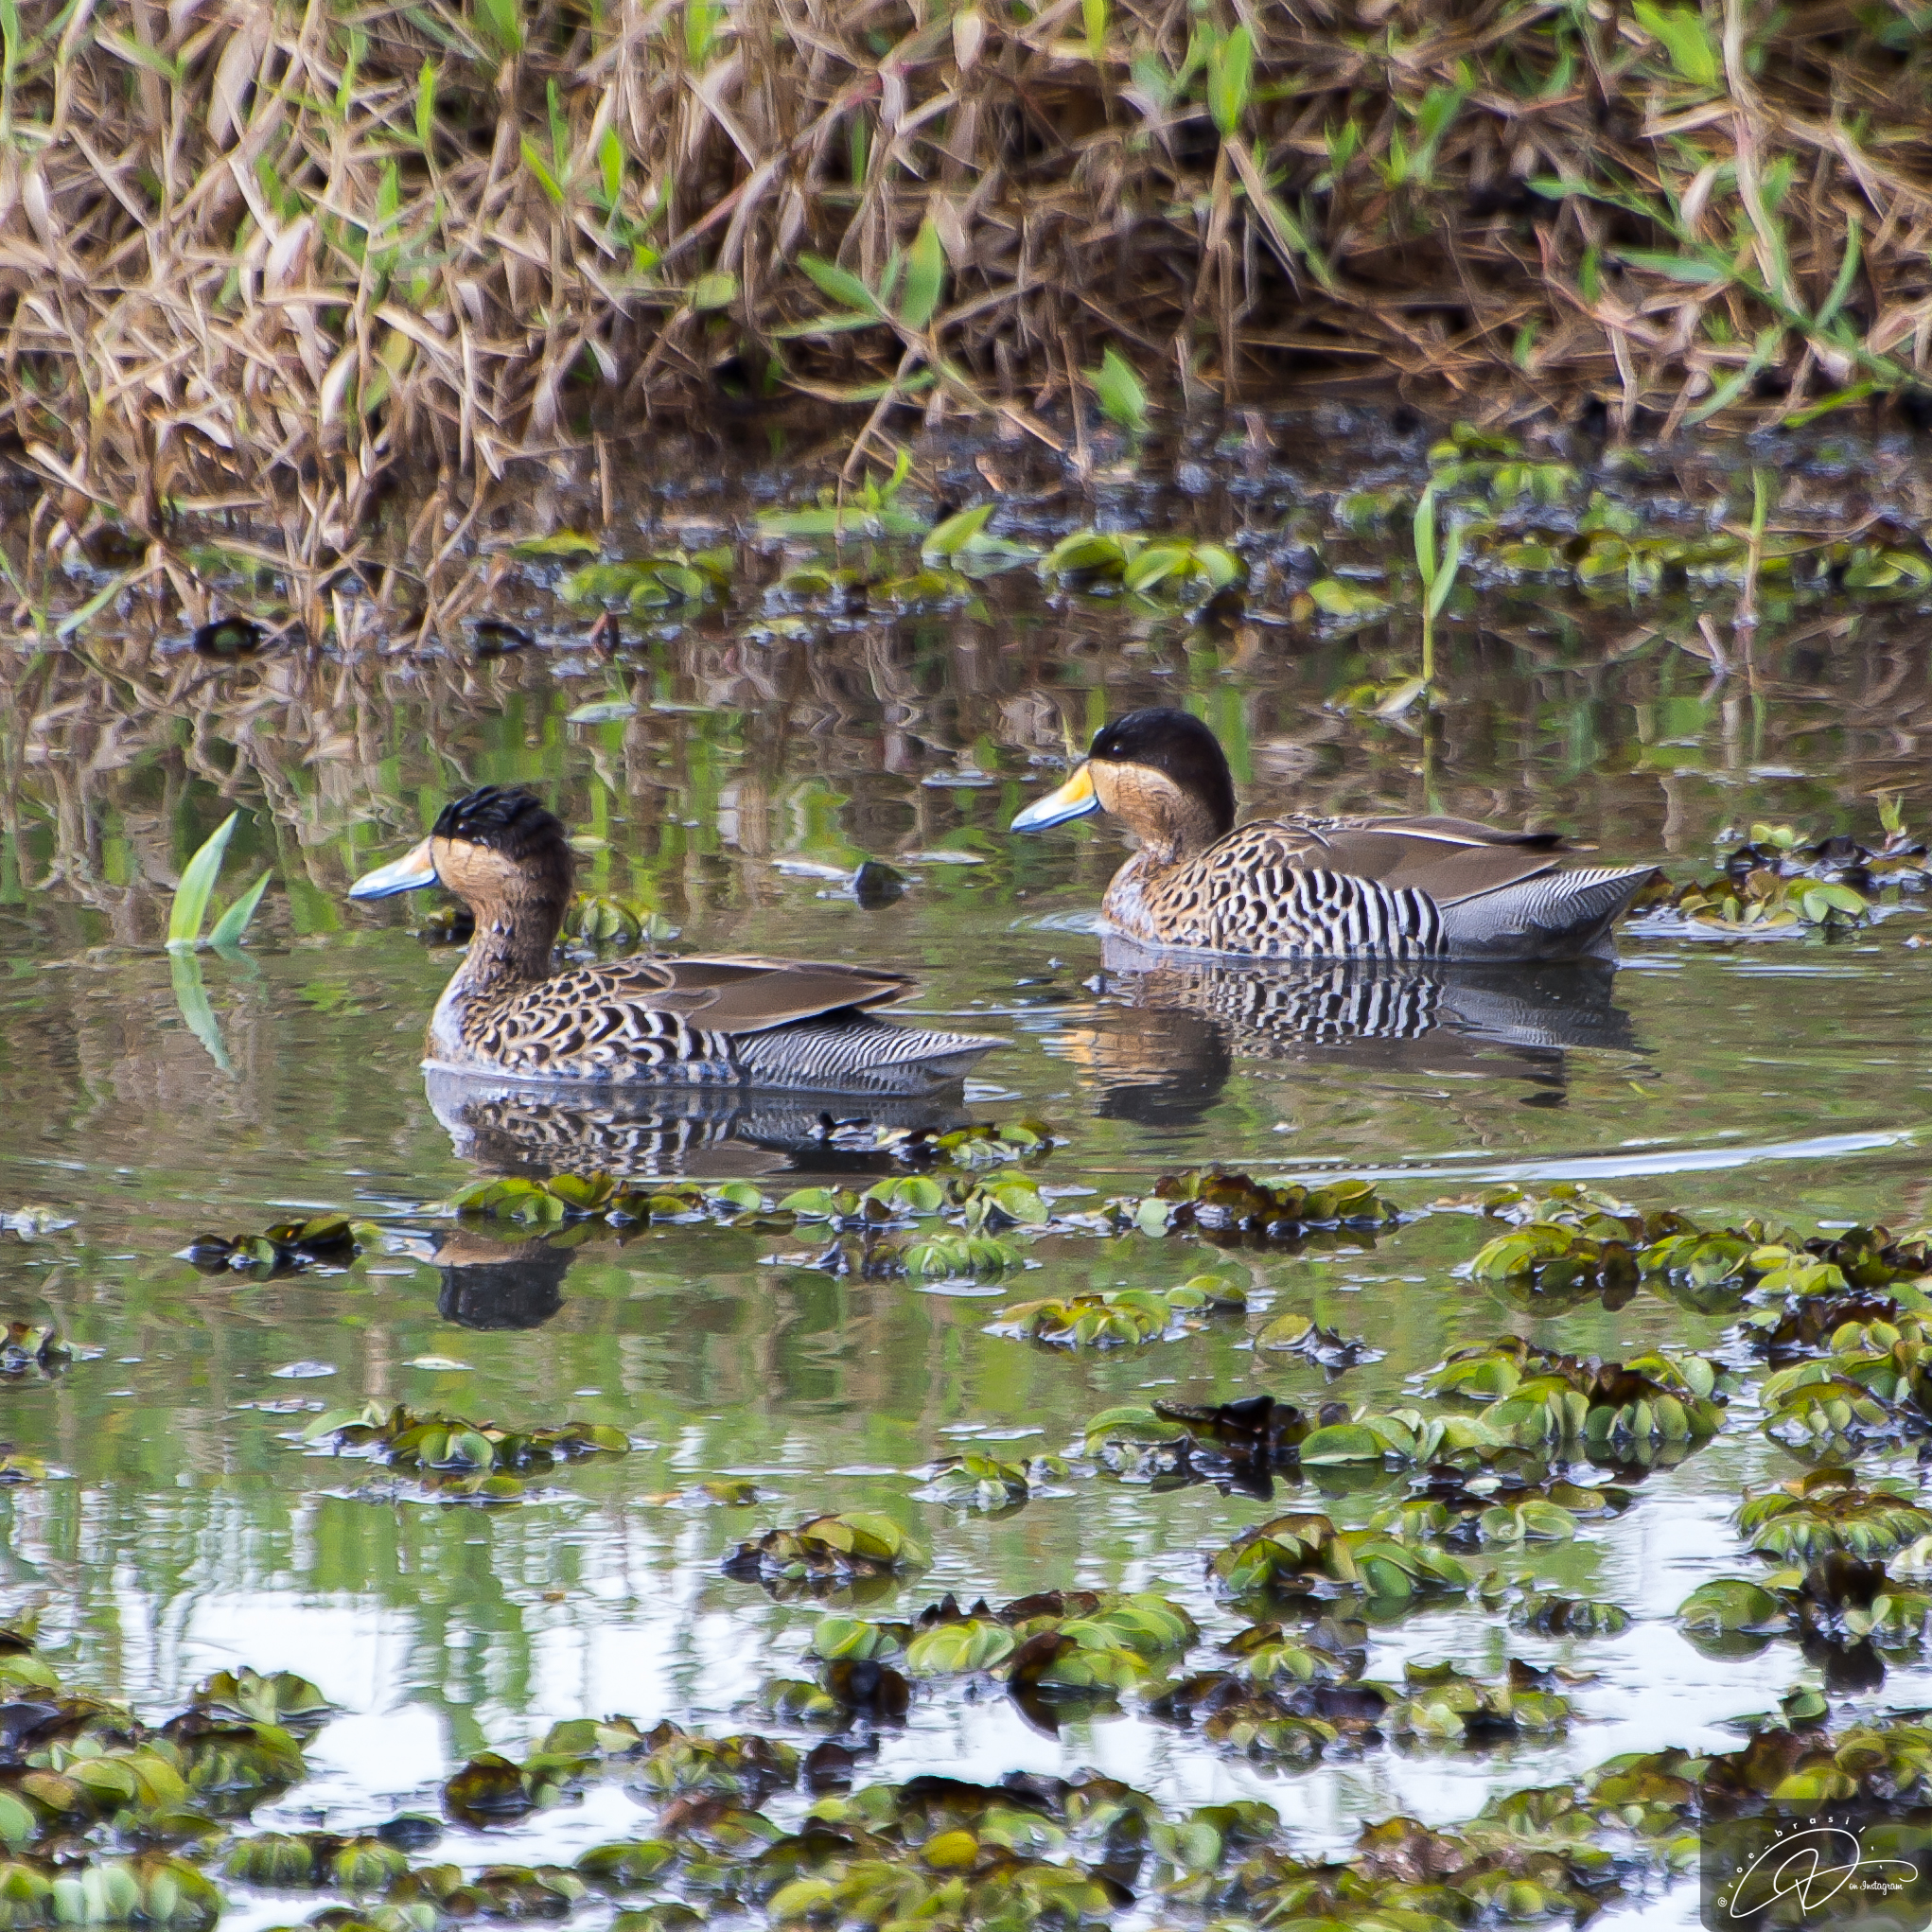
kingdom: Animalia
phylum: Chordata
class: Aves
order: Anseriformes
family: Anatidae
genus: Spatula
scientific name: Spatula versicolor
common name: Silver teal
